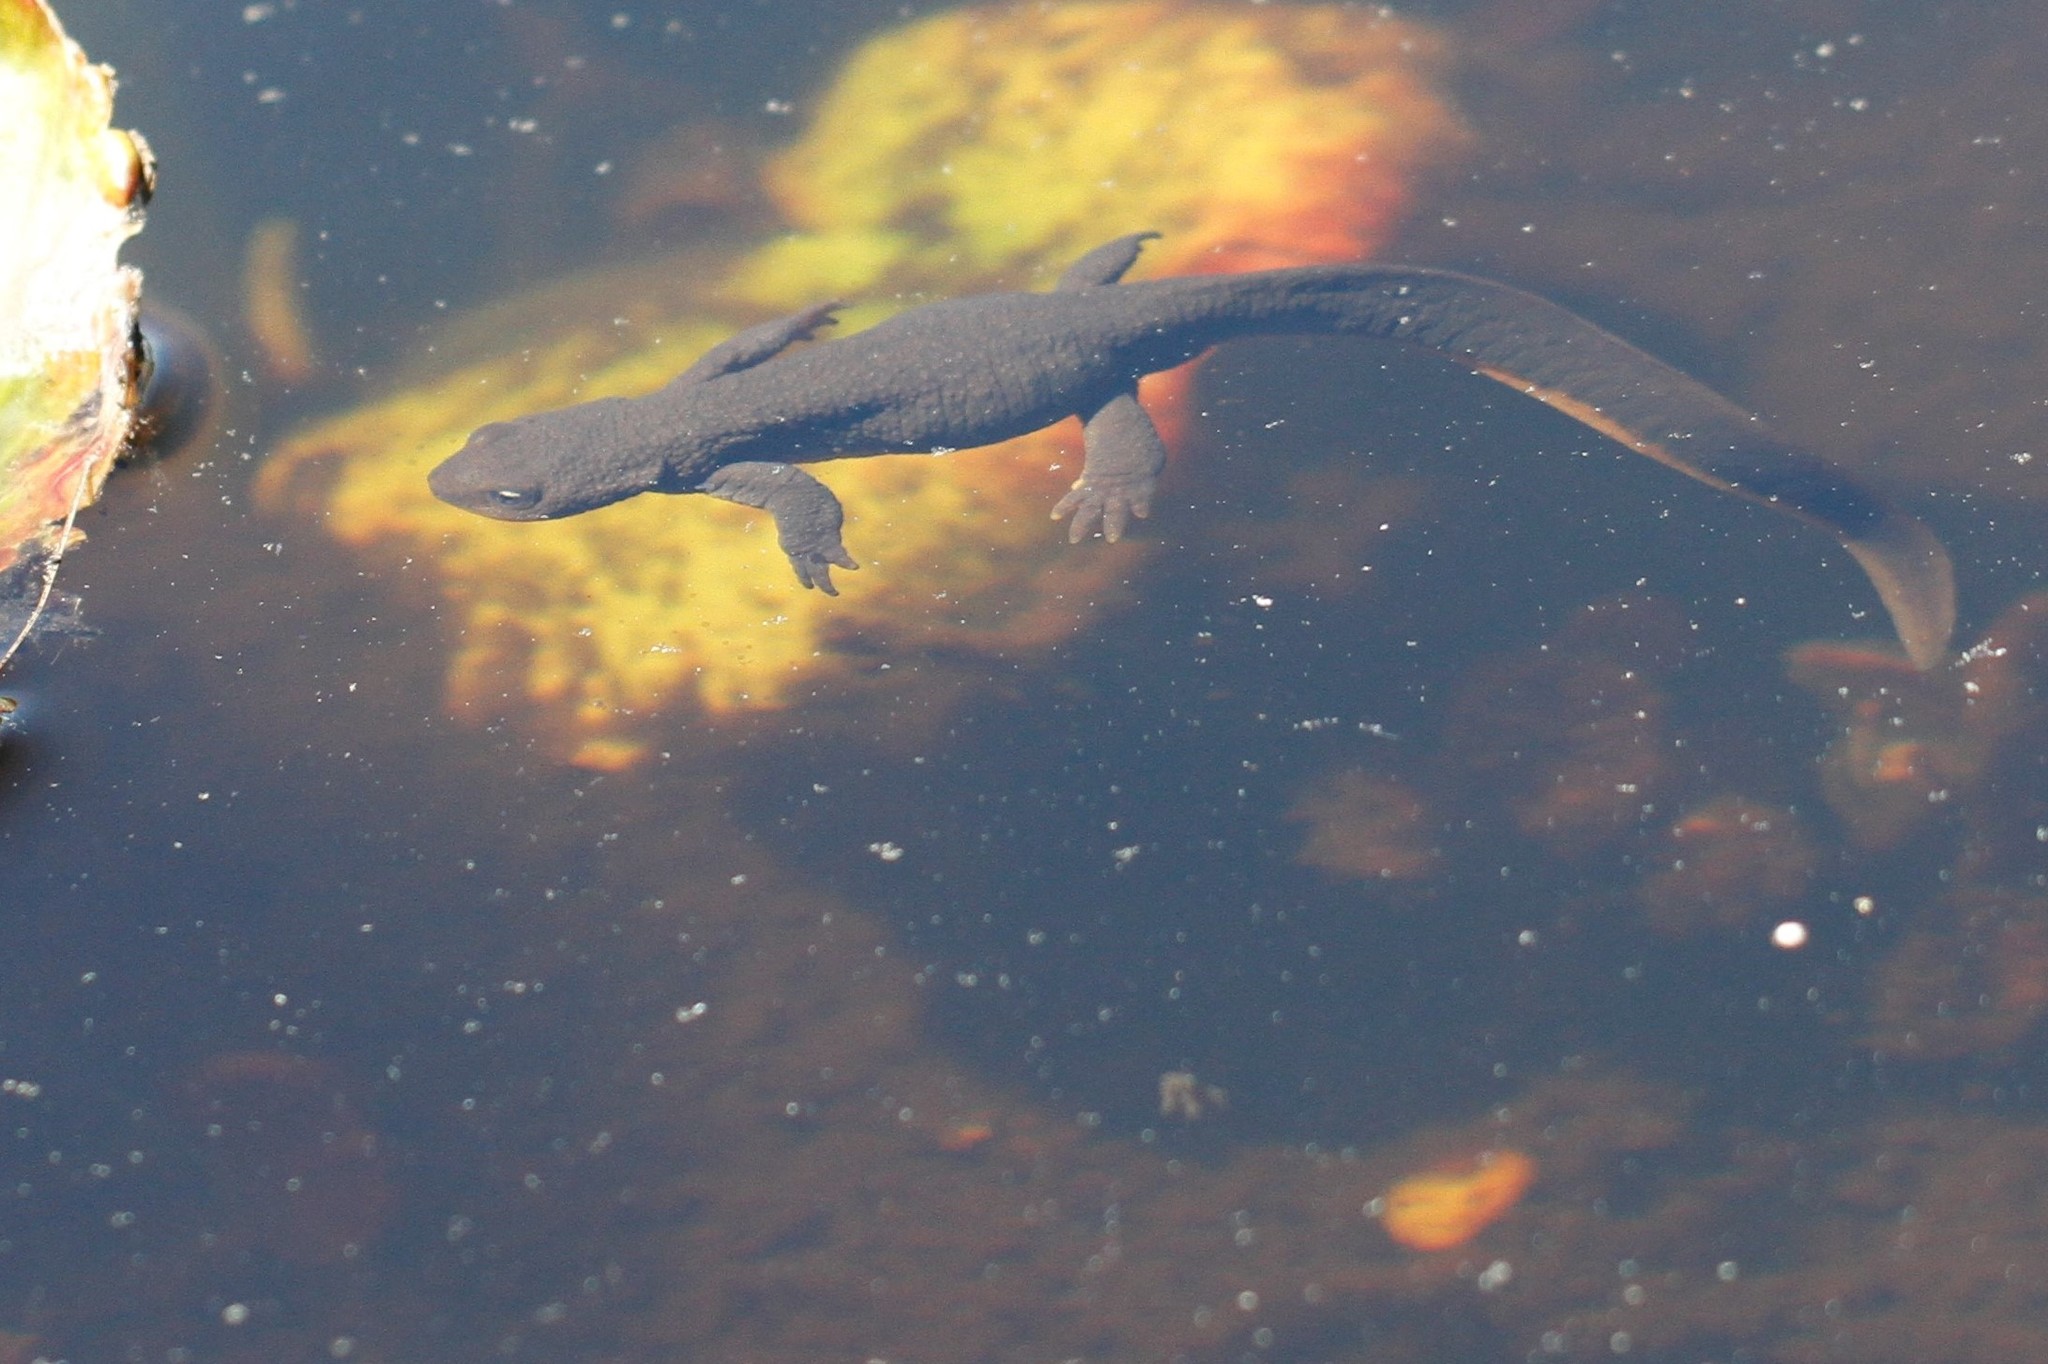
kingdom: Animalia
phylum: Chordata
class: Amphibia
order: Caudata
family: Salamandridae
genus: Taricha
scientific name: Taricha granulosa
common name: Roughskin newt
